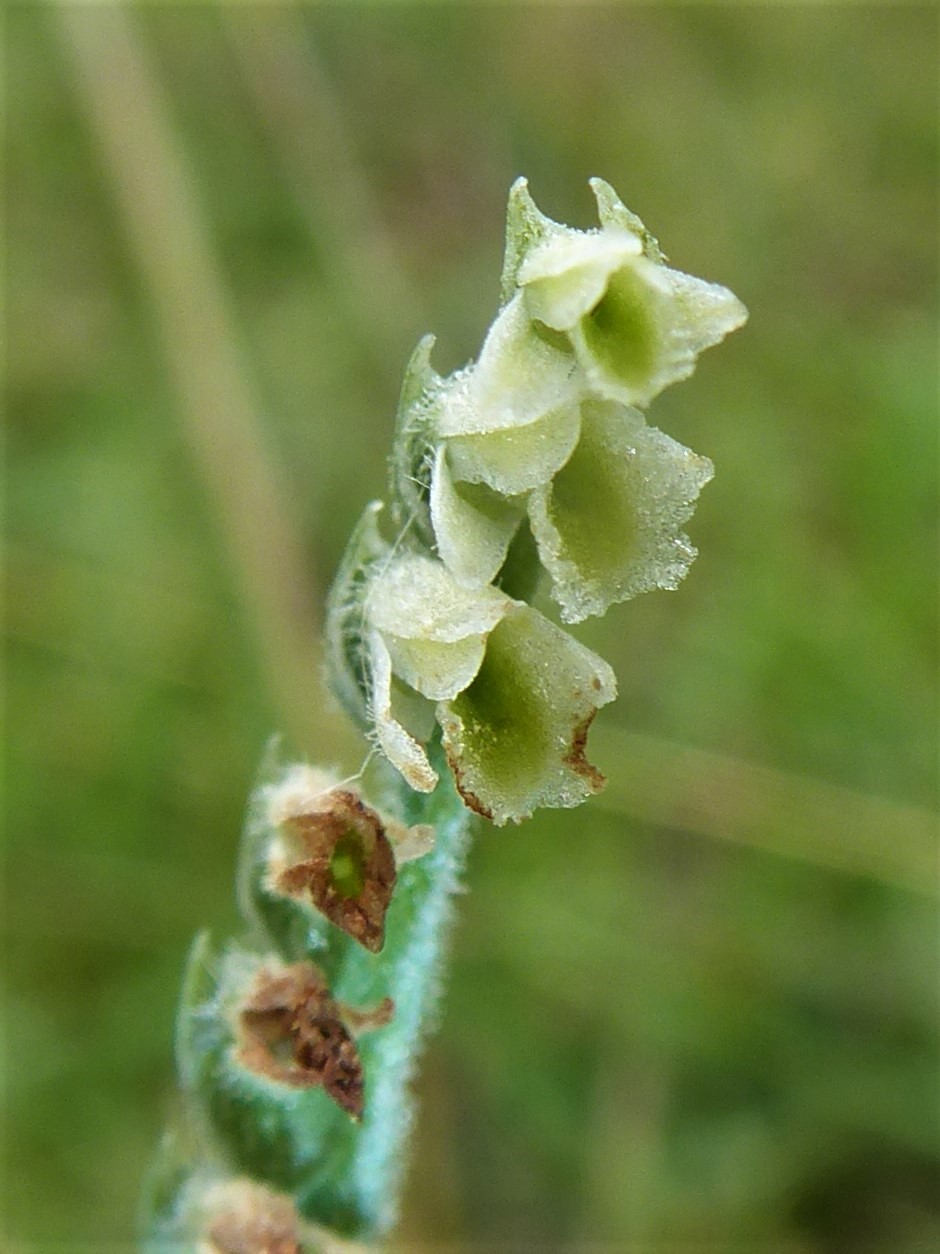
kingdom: Plantae
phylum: Tracheophyta
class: Liliopsida
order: Asparagales
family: Orchidaceae
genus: Spiranthes
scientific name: Spiranthes spiralis
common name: Autumn lady's-tresses
